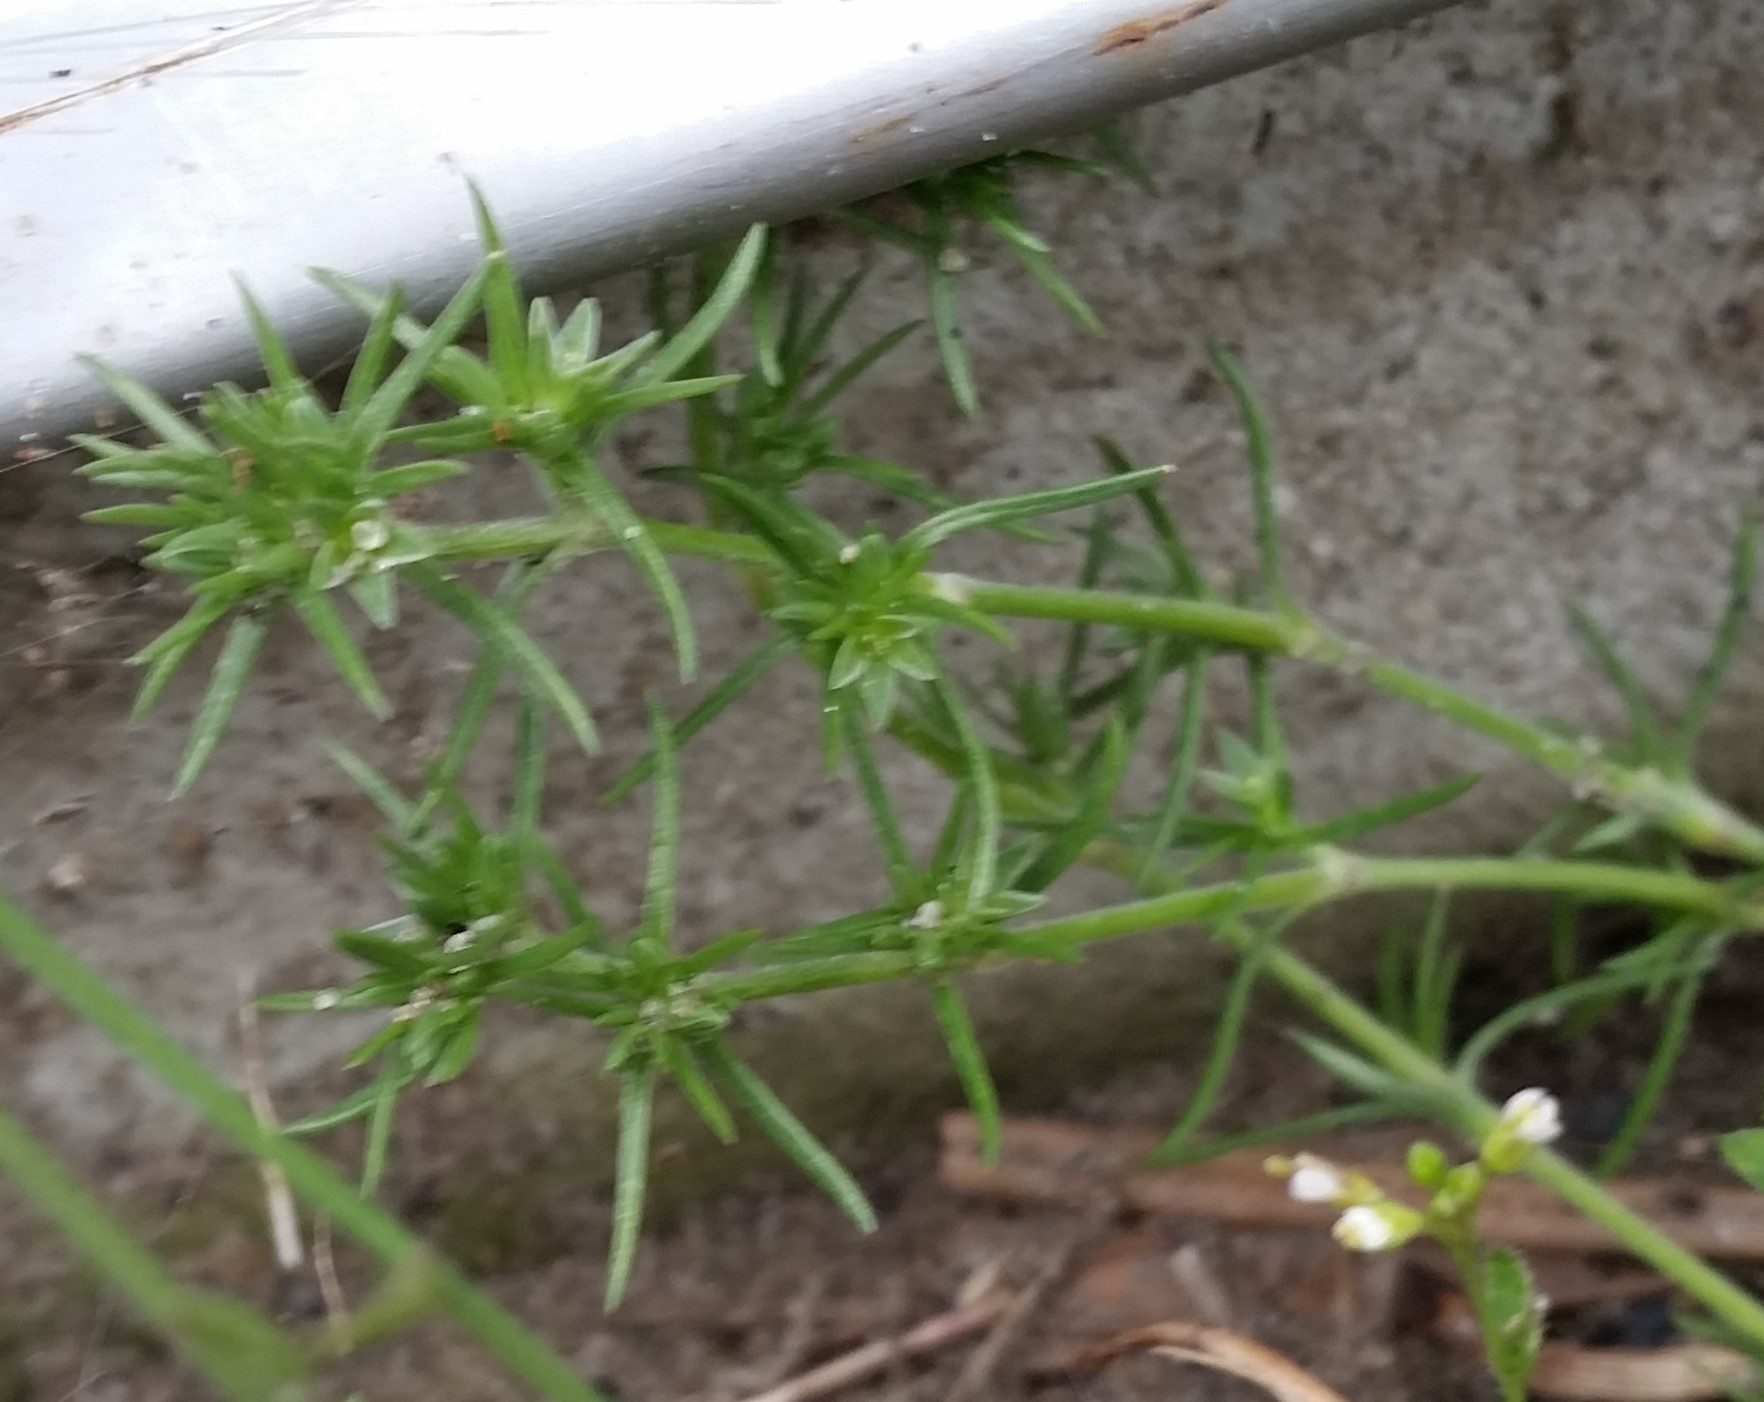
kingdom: Plantae
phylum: Tracheophyta
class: Magnoliopsida
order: Caryophyllales
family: Caryophyllaceae
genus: Scleranthus
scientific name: Scleranthus annuus
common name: Annual knawel
